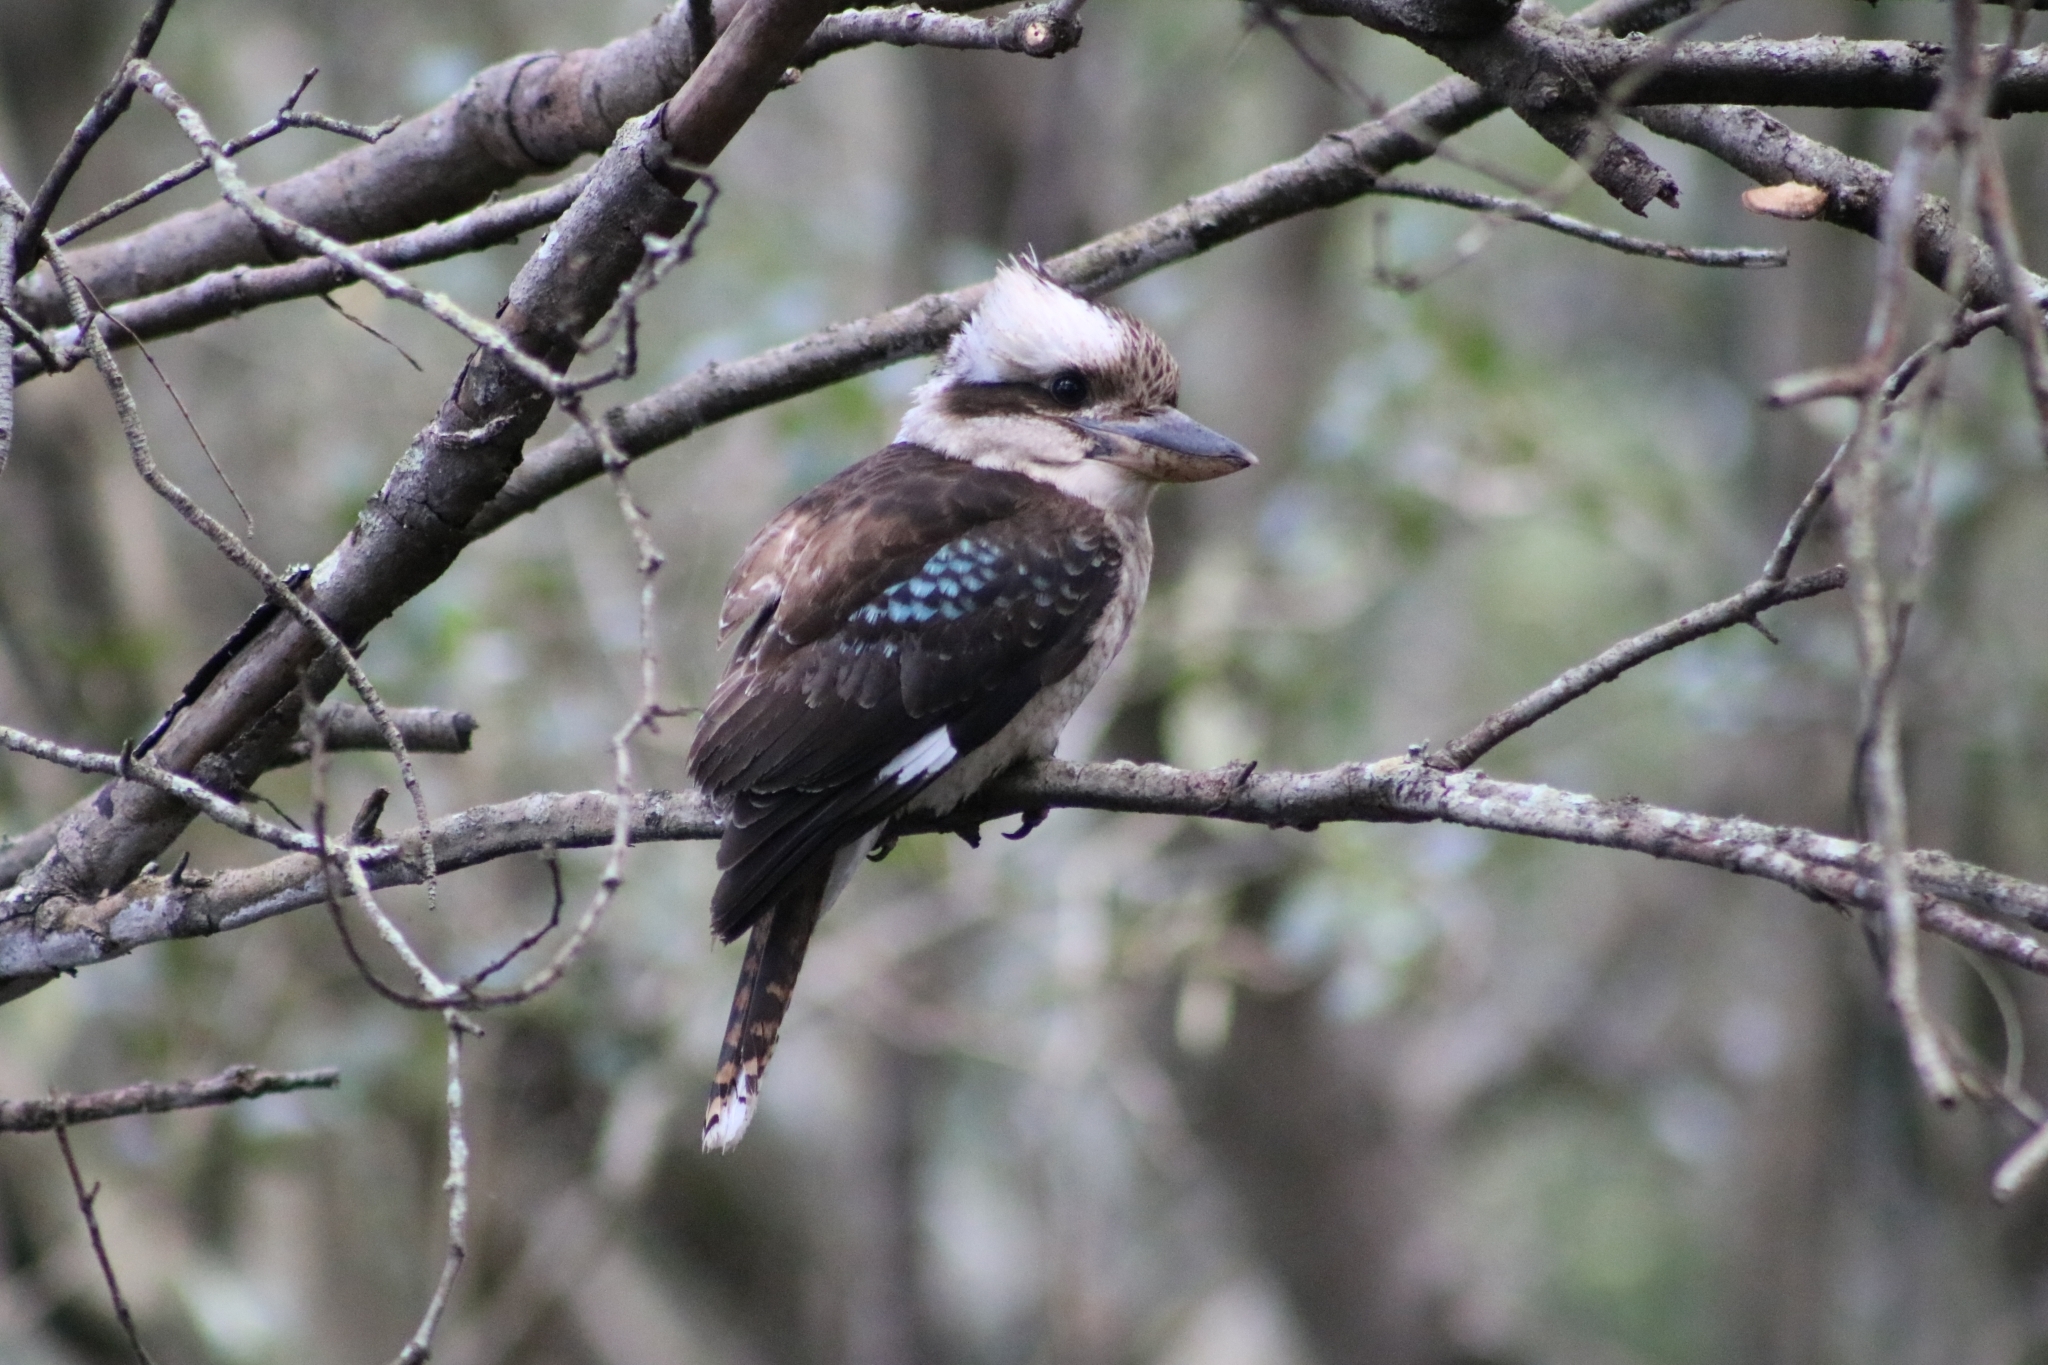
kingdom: Animalia
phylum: Chordata
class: Aves
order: Coraciiformes
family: Alcedinidae
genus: Dacelo
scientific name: Dacelo novaeguineae
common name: Laughing kookaburra
